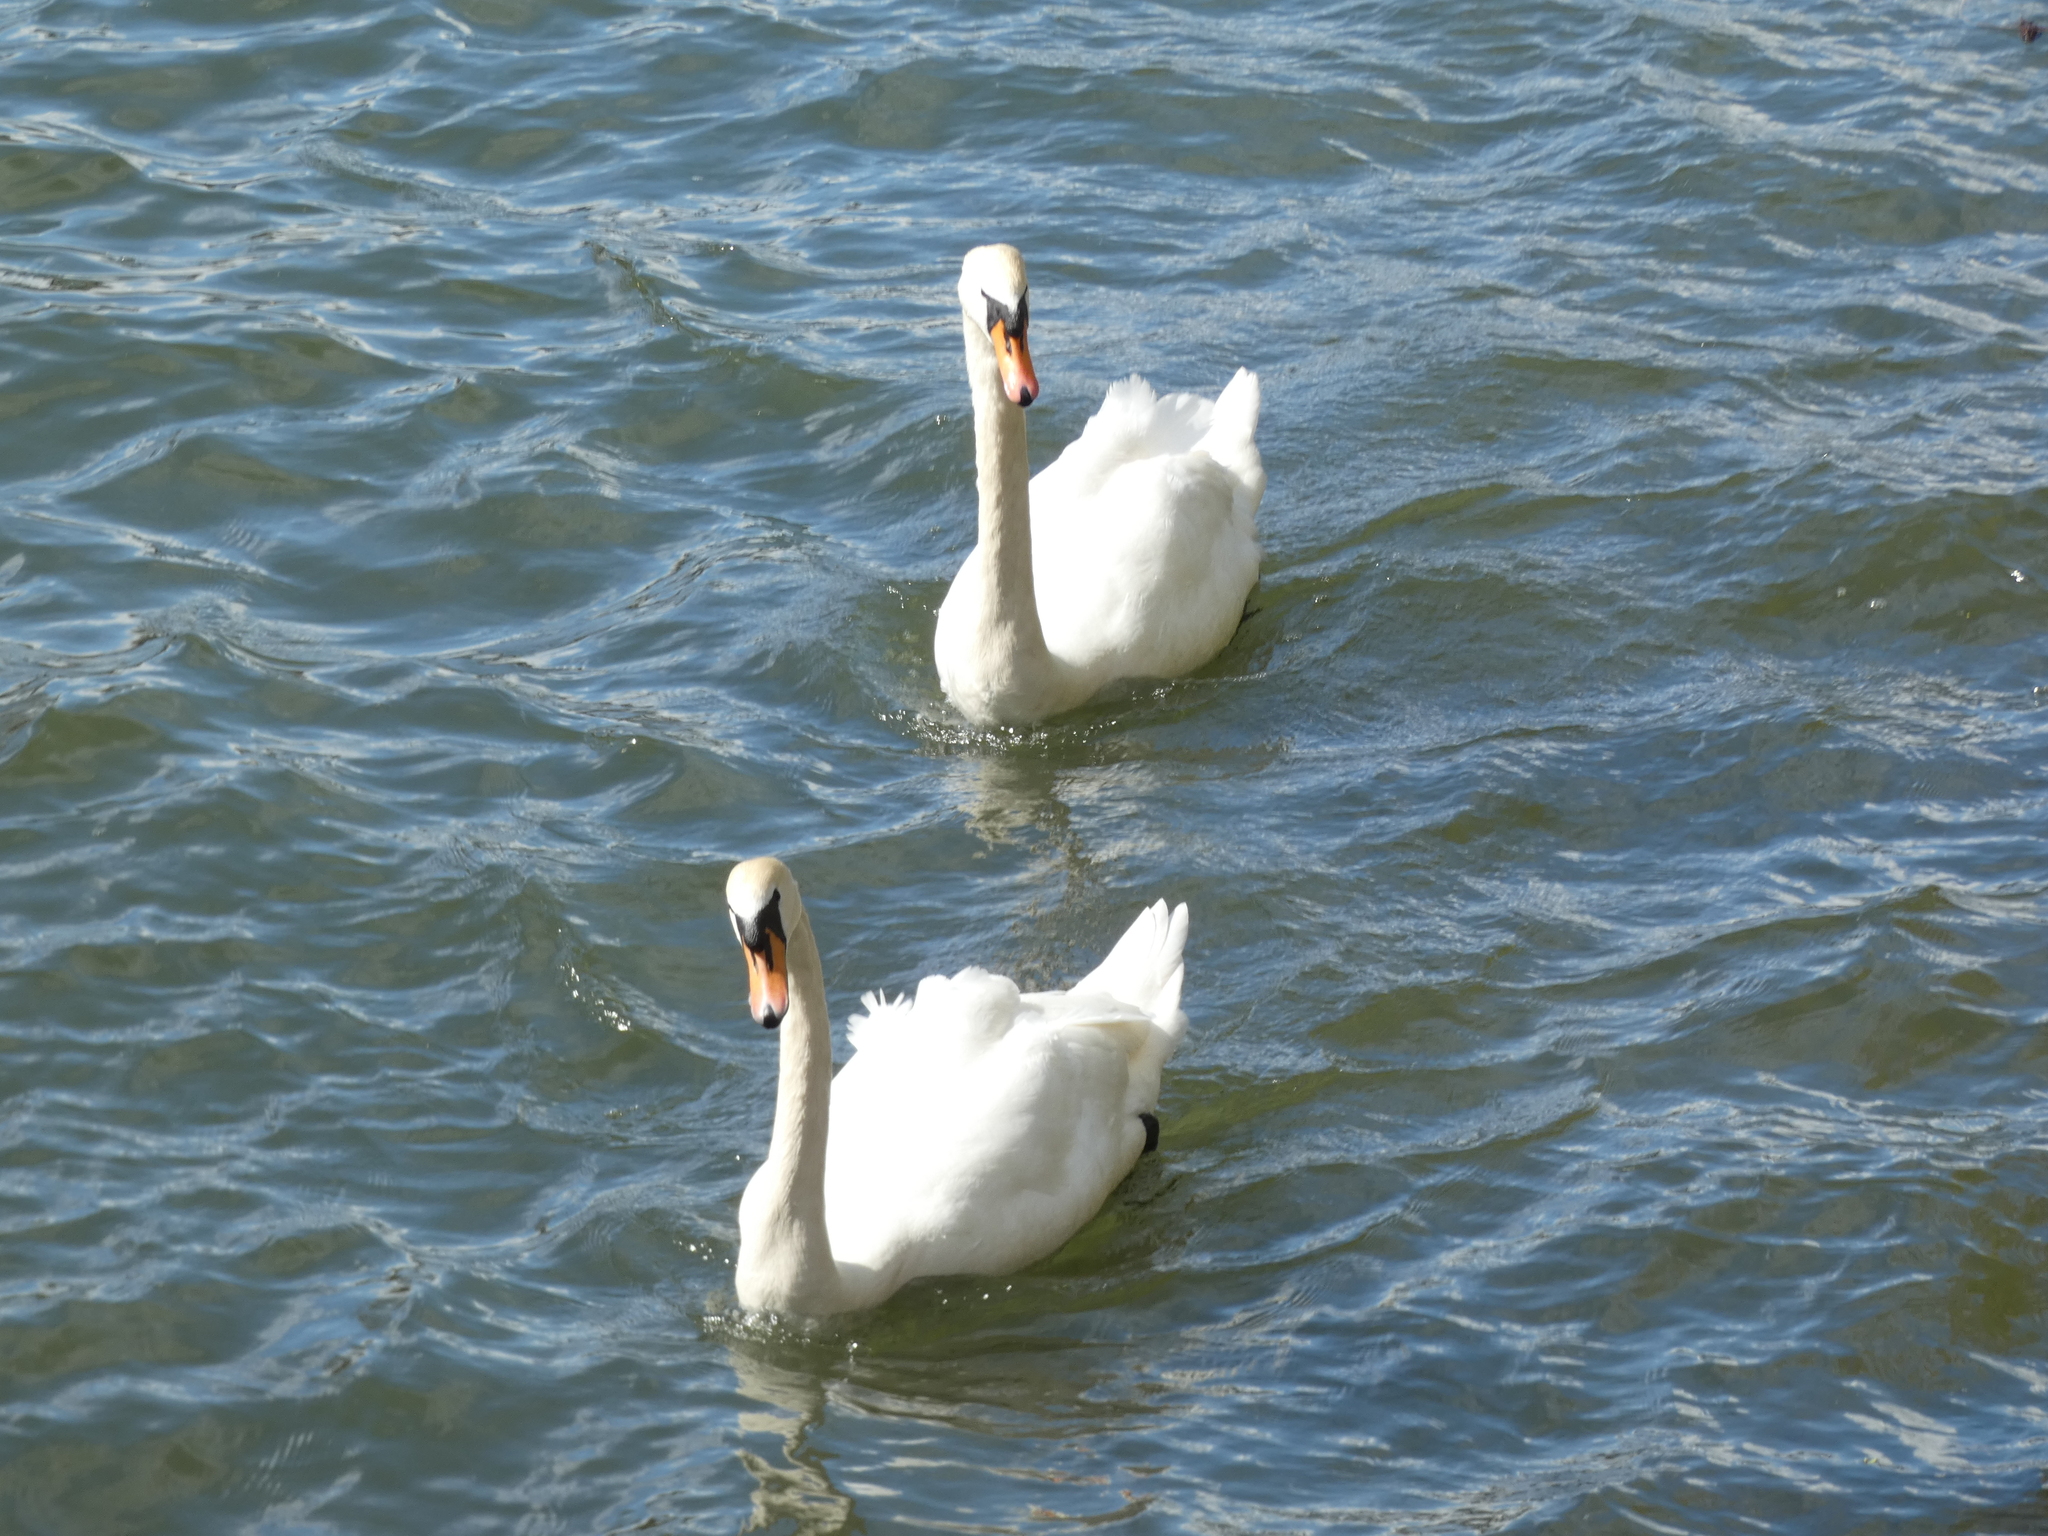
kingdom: Animalia
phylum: Chordata
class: Aves
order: Anseriformes
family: Anatidae
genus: Cygnus
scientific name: Cygnus olor
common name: Mute swan
